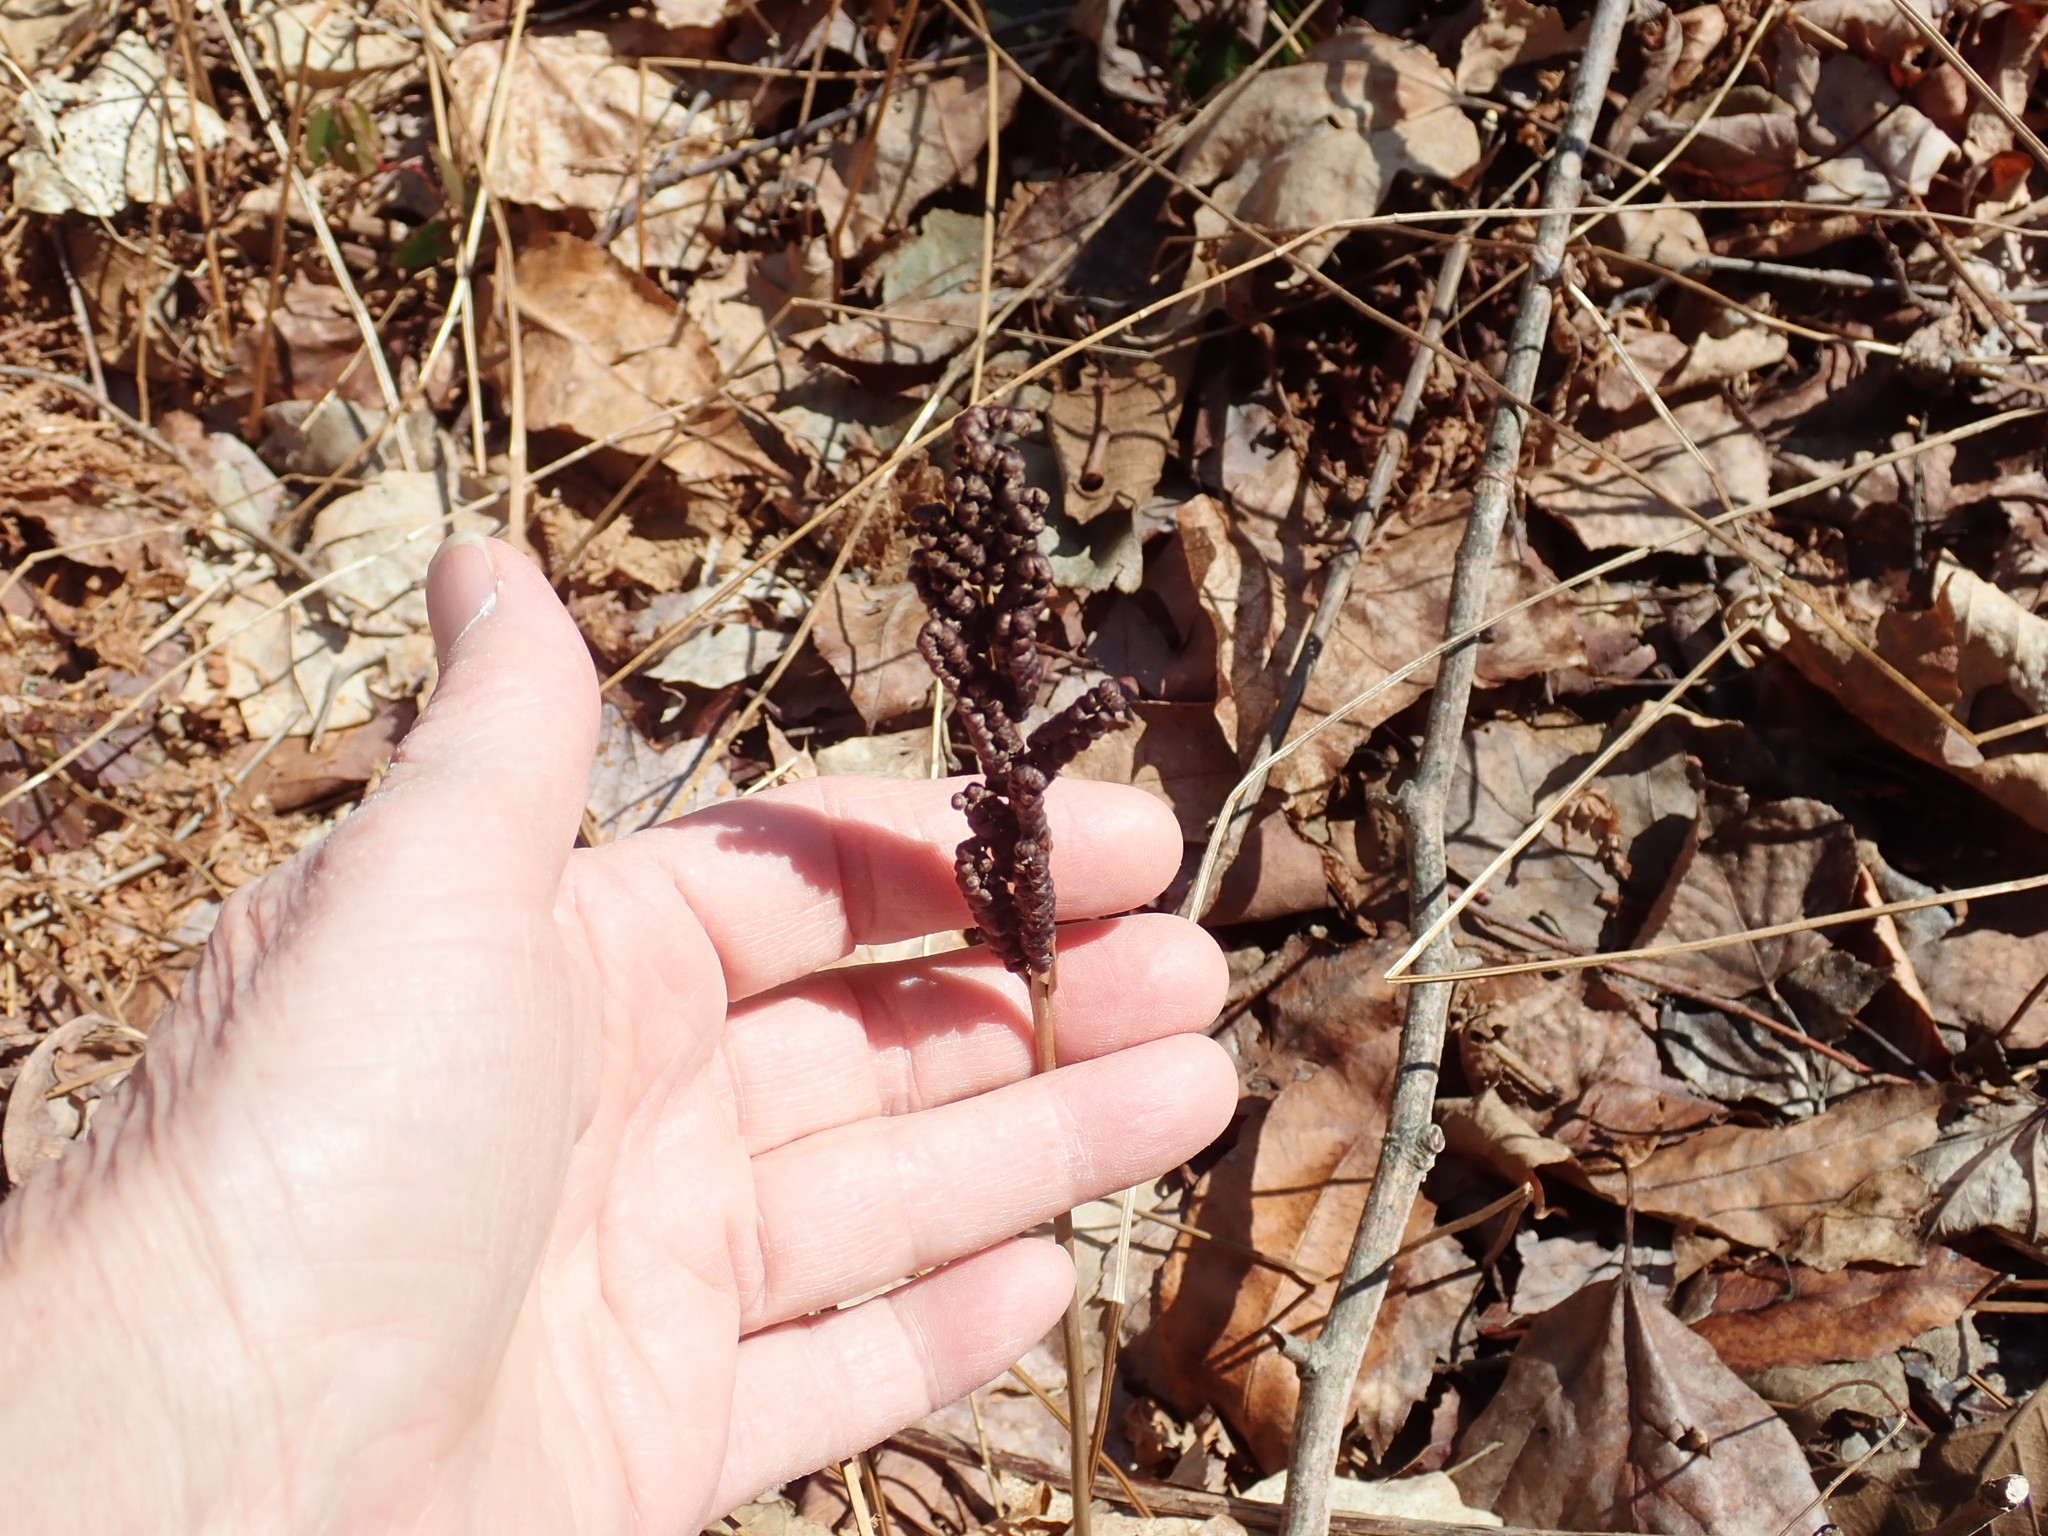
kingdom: Plantae
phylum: Tracheophyta
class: Polypodiopsida
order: Polypodiales
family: Onocleaceae
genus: Onoclea
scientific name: Onoclea sensibilis
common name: Sensitive fern
